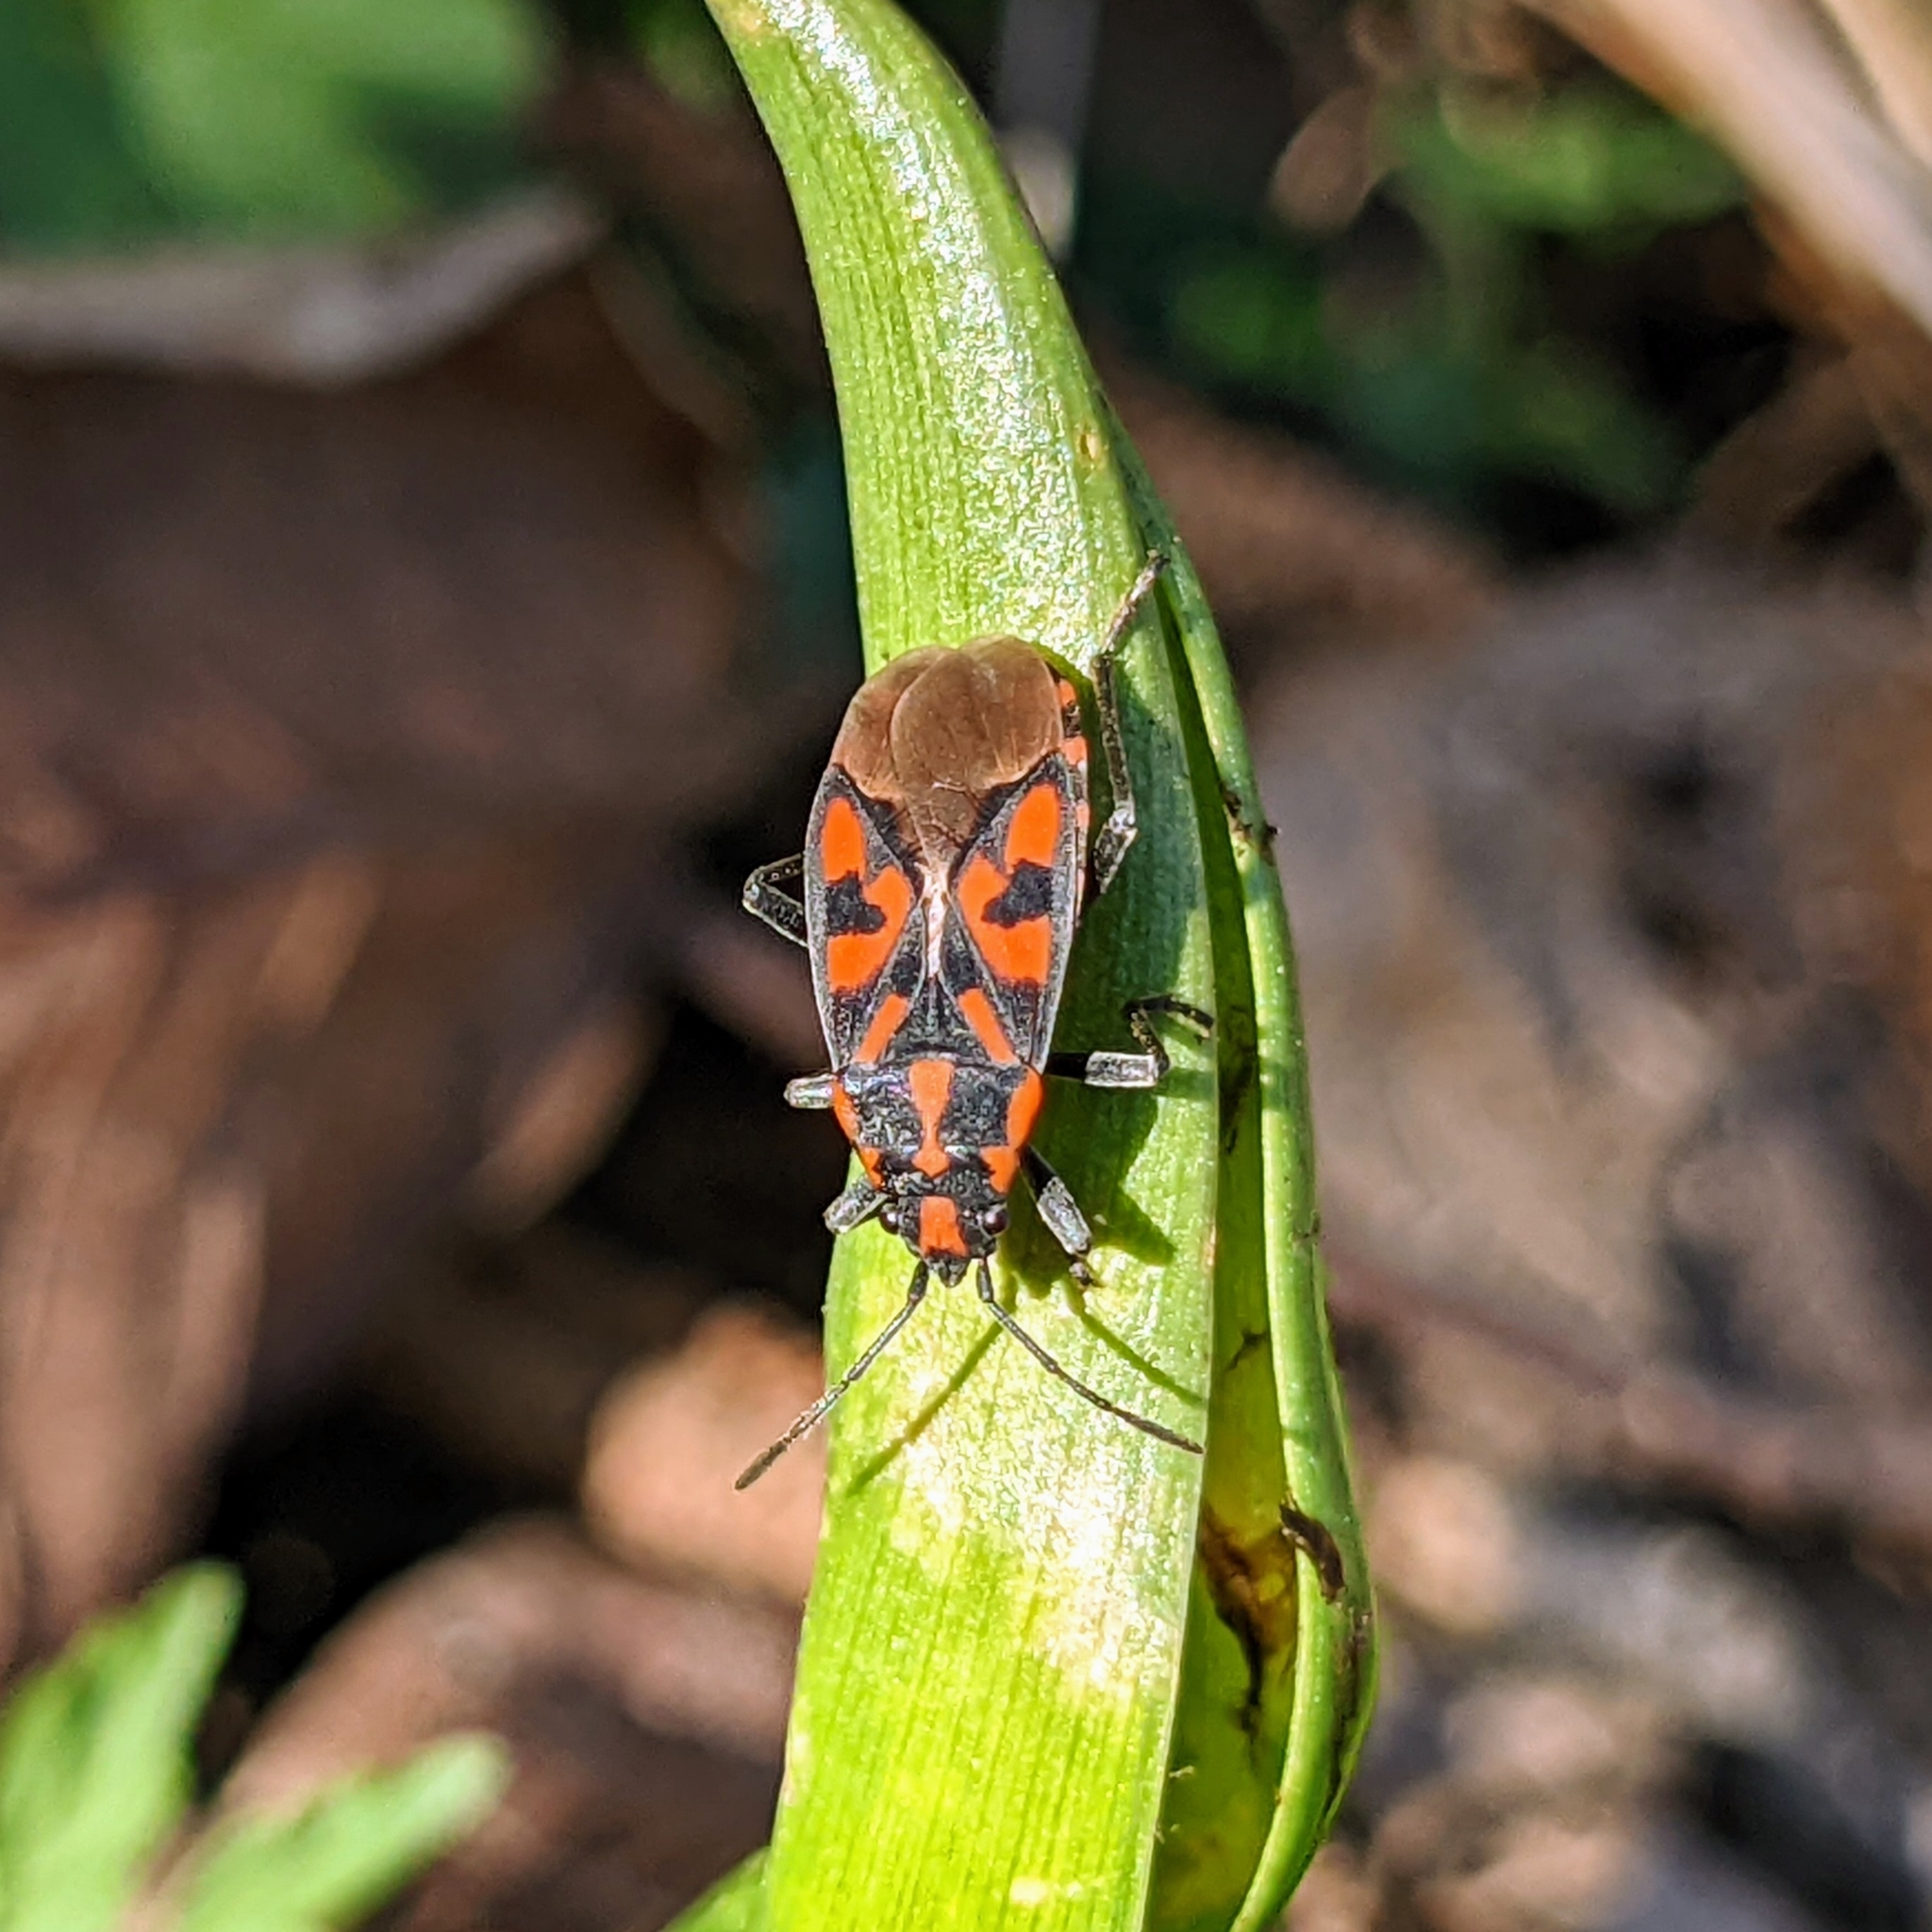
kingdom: Animalia
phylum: Arthropoda
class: Insecta
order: Hemiptera
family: Lygaeidae
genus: Spilostethus
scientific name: Spilostethus saxatilis
